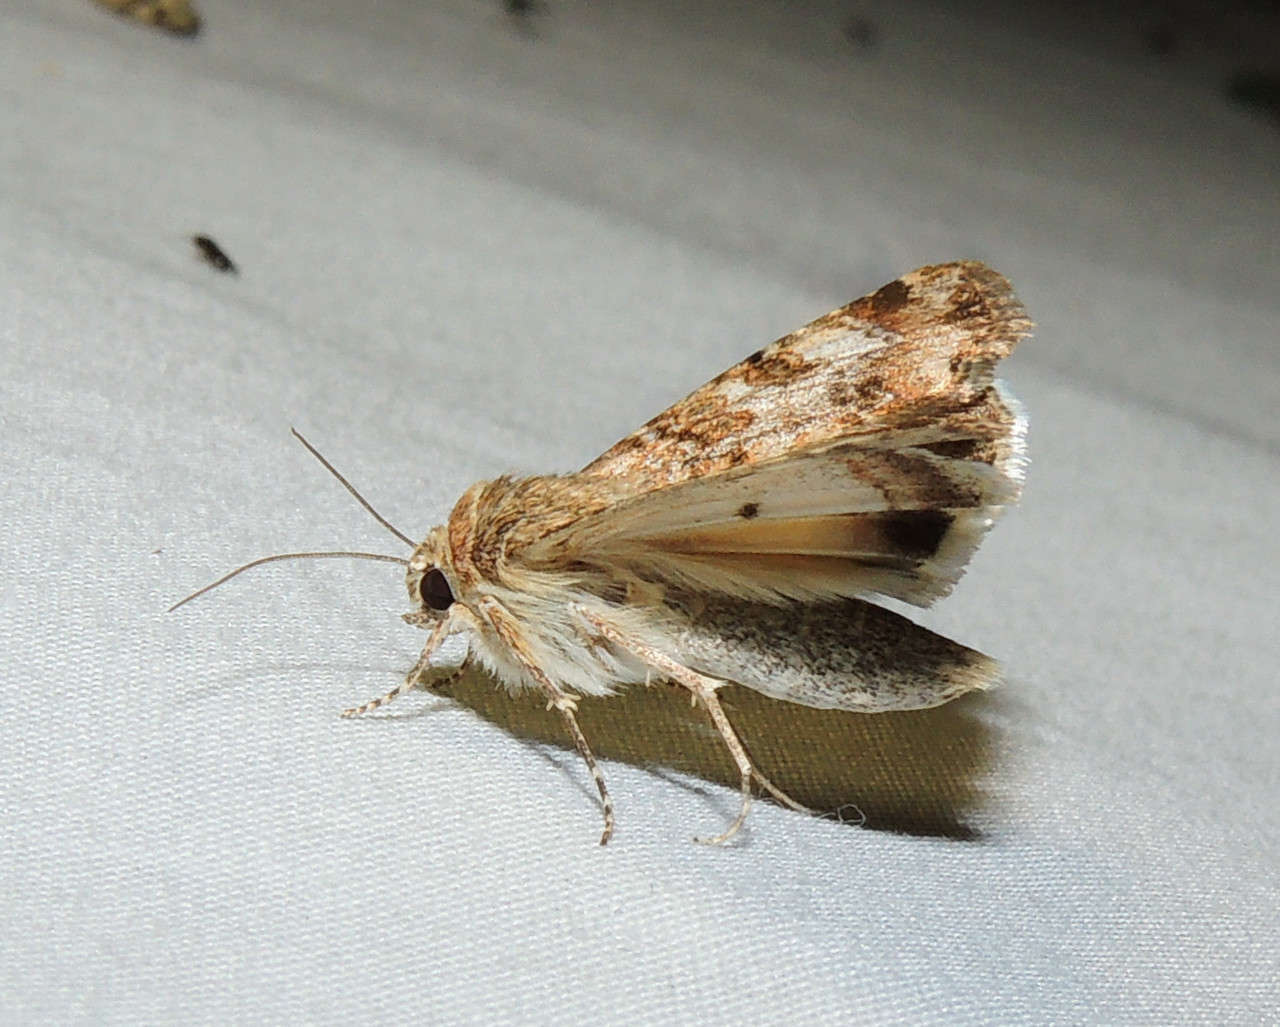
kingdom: Animalia
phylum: Arthropoda
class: Insecta
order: Lepidoptera
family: Noctuidae
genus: Heliothis
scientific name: Heliothis punctifera
